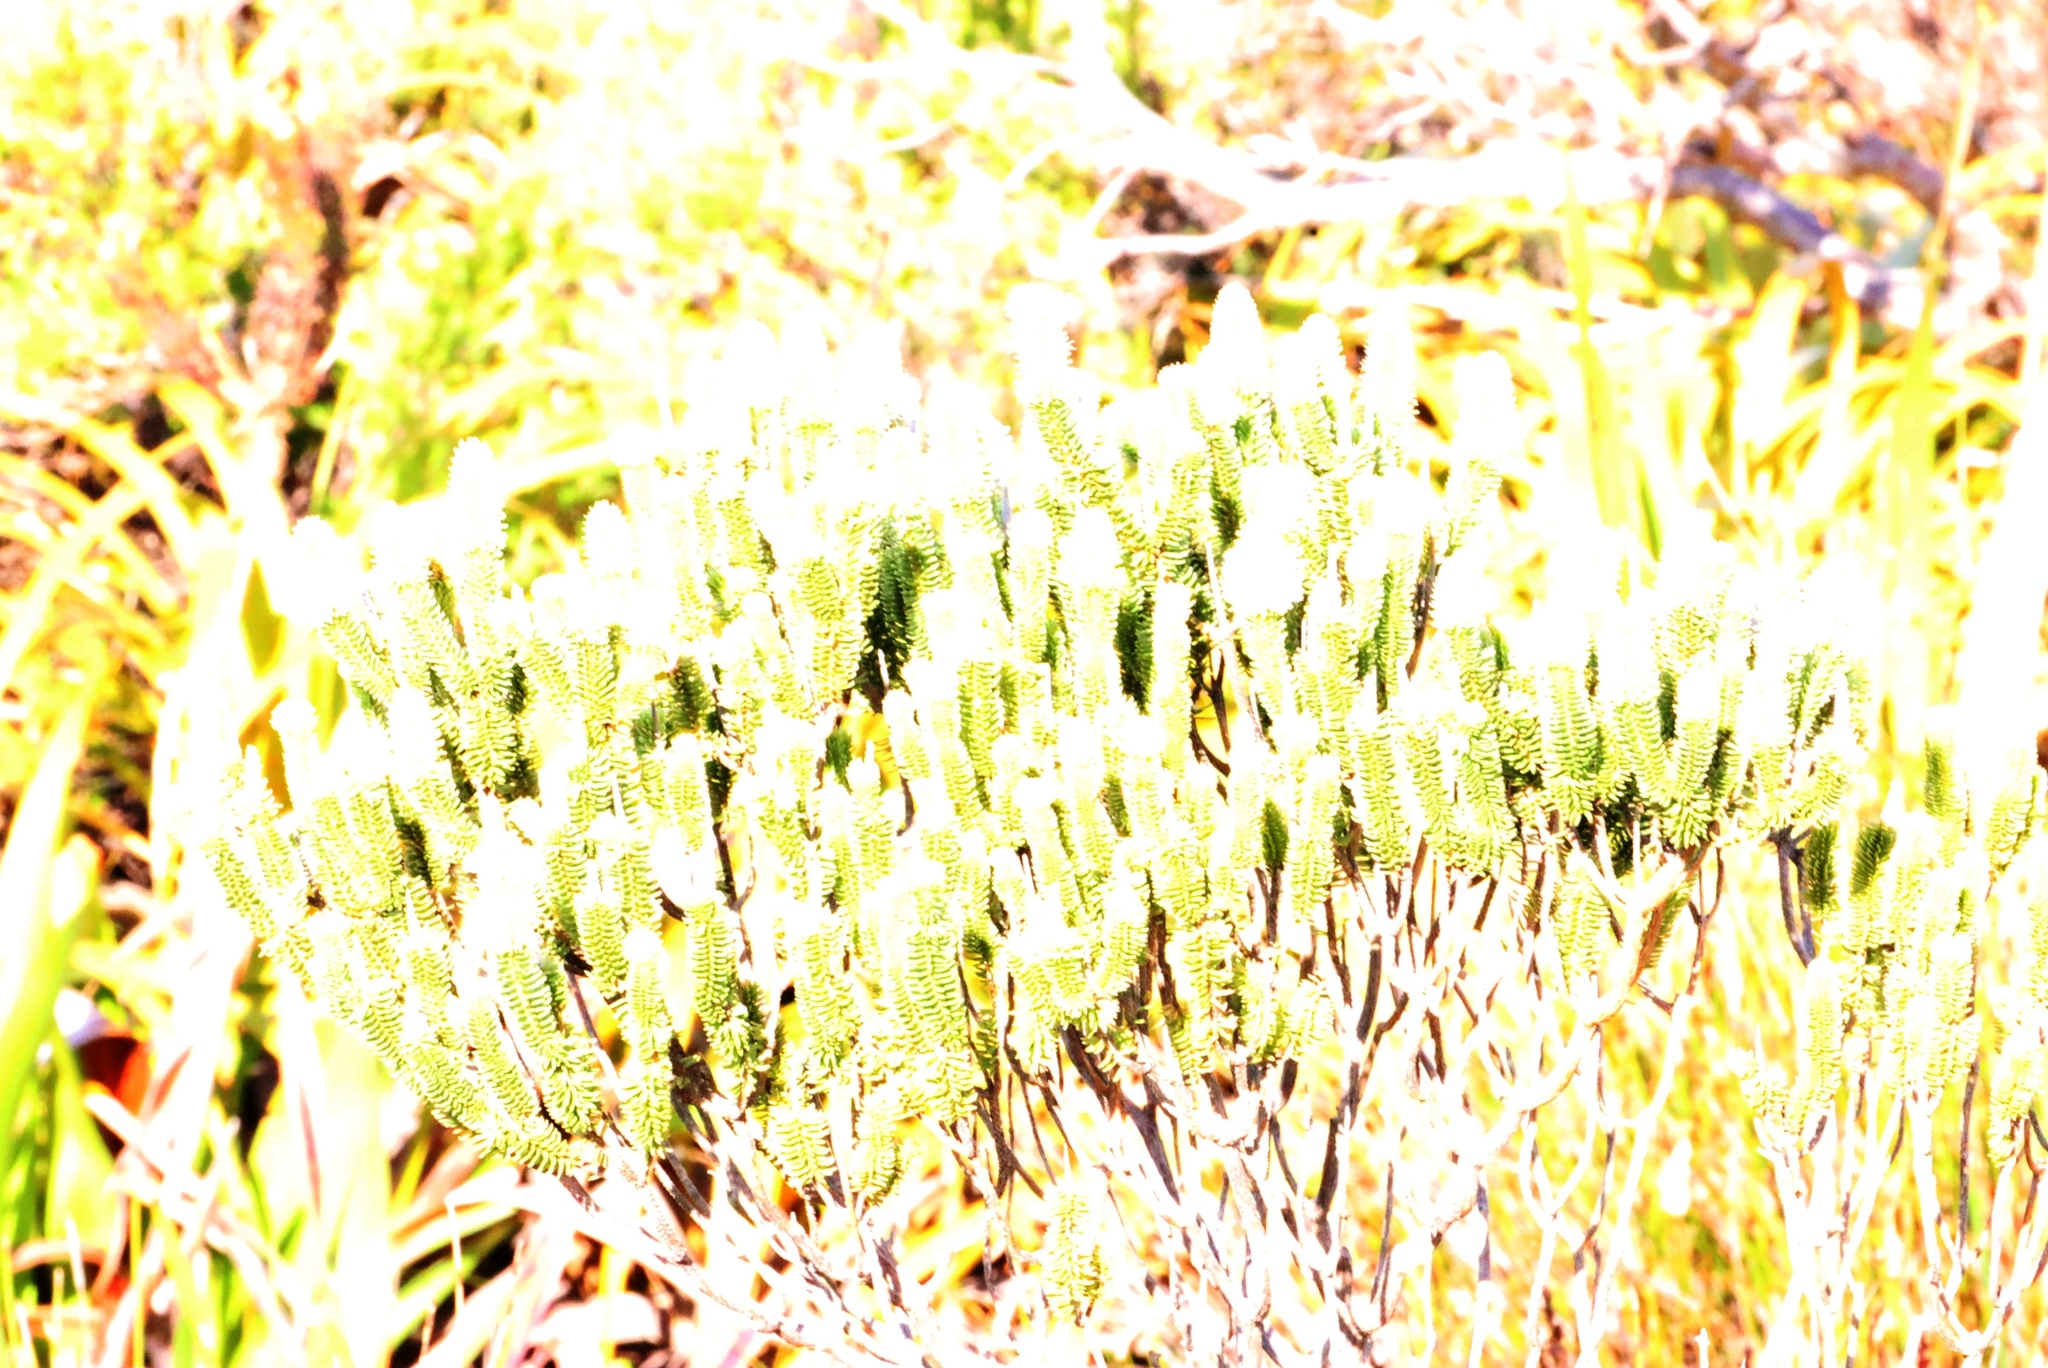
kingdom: Plantae
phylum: Tracheophyta
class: Magnoliopsida
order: Lamiales
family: Stilbaceae
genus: Stilbe
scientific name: Stilbe vestita
